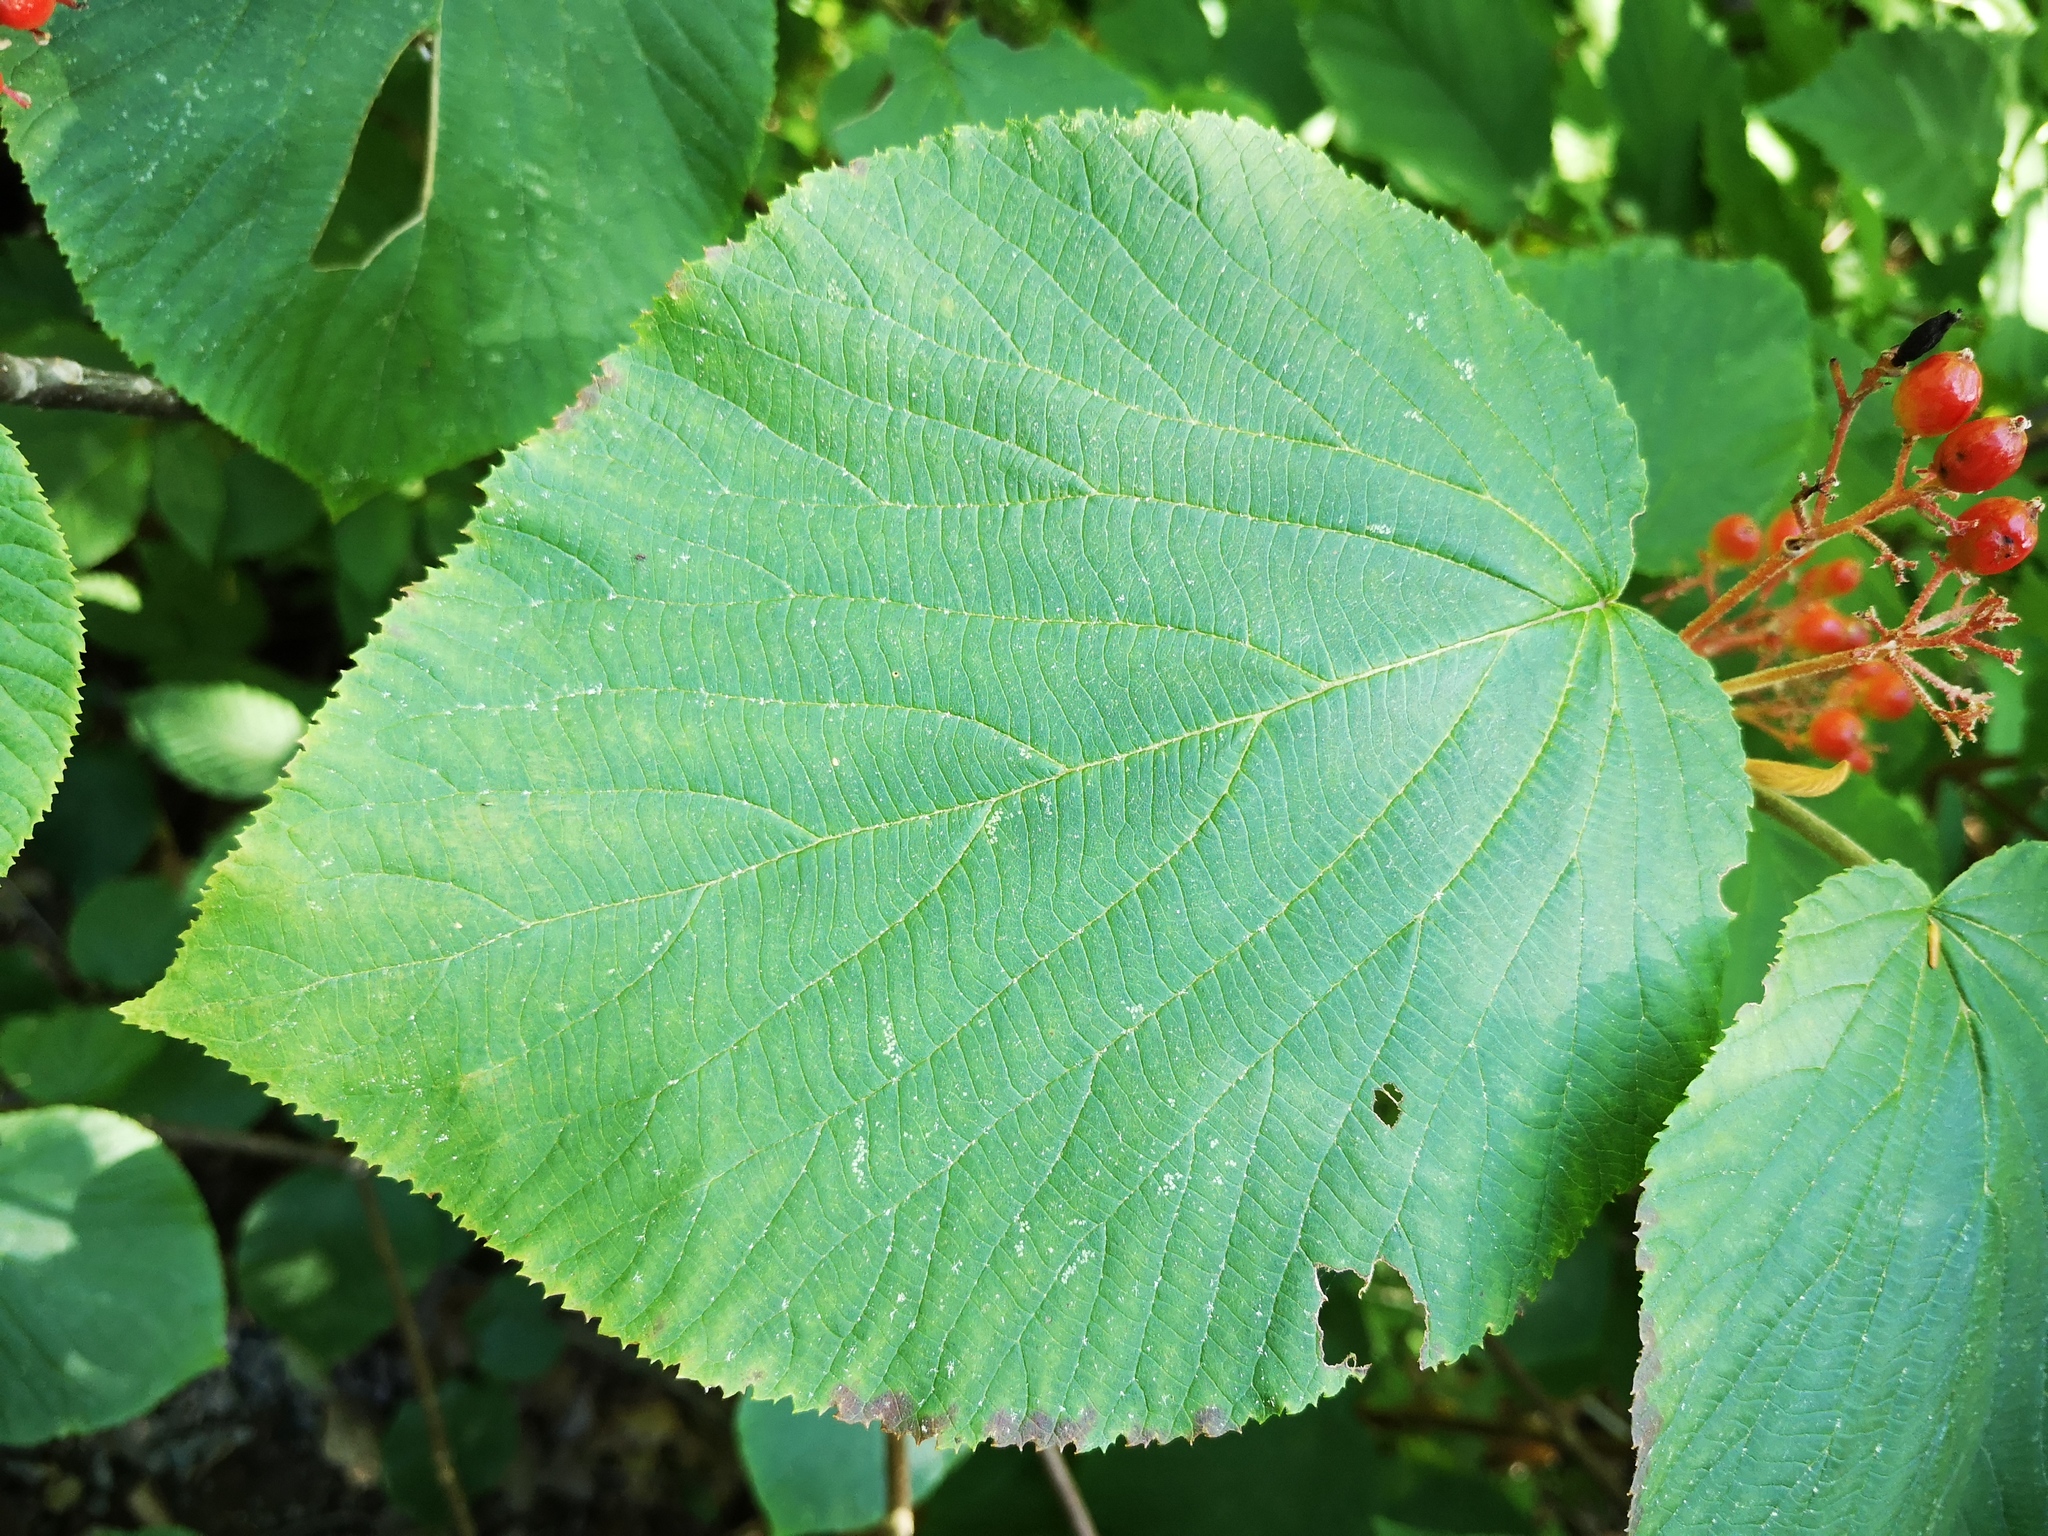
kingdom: Plantae
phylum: Tracheophyta
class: Magnoliopsida
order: Dipsacales
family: Viburnaceae
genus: Viburnum
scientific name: Viburnum lantanoides
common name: Hobblebush
